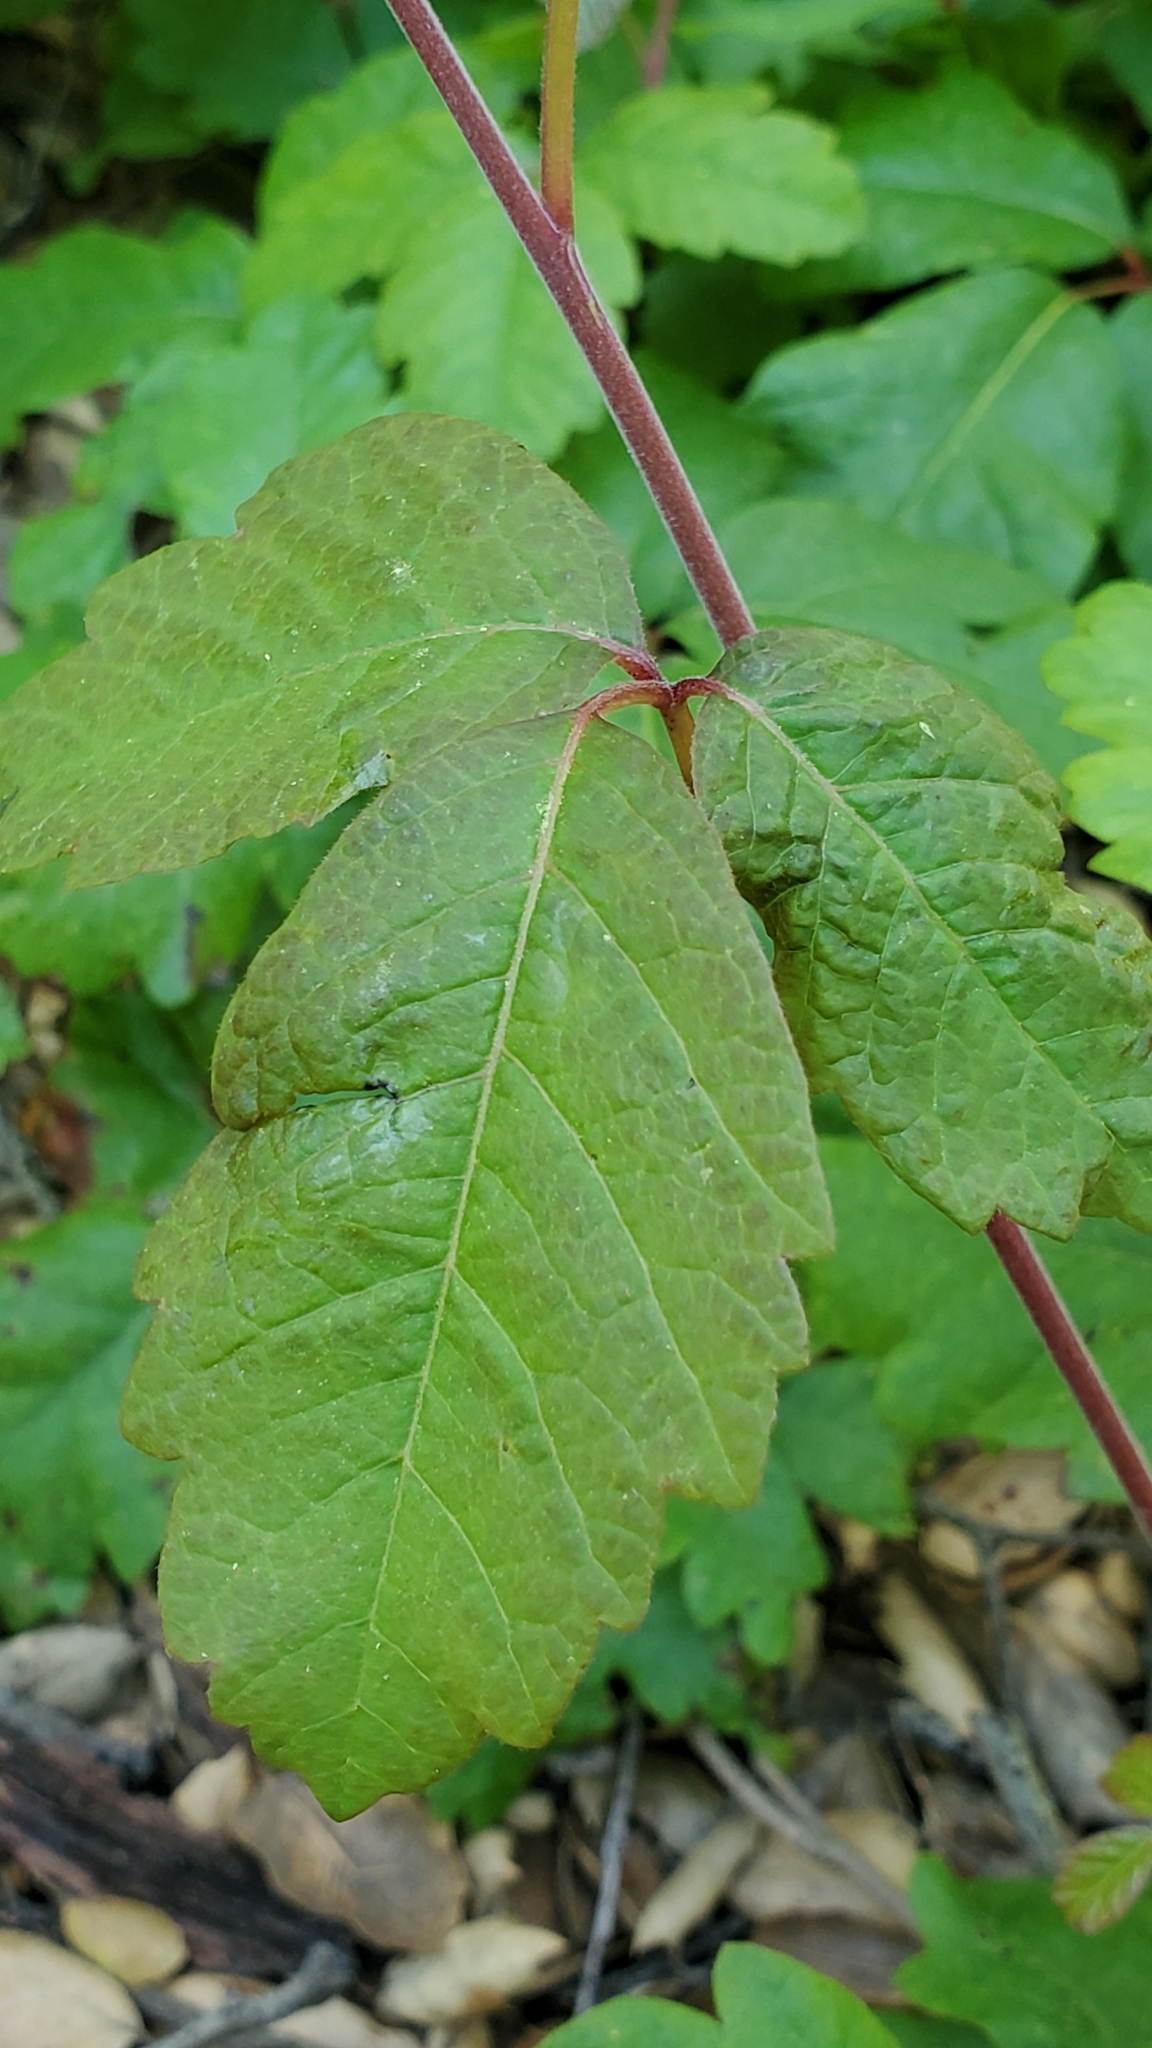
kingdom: Plantae
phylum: Tracheophyta
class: Magnoliopsida
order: Sapindales
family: Anacardiaceae
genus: Toxicodendron
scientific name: Toxicodendron diversilobum
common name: Pacific poison-oak
